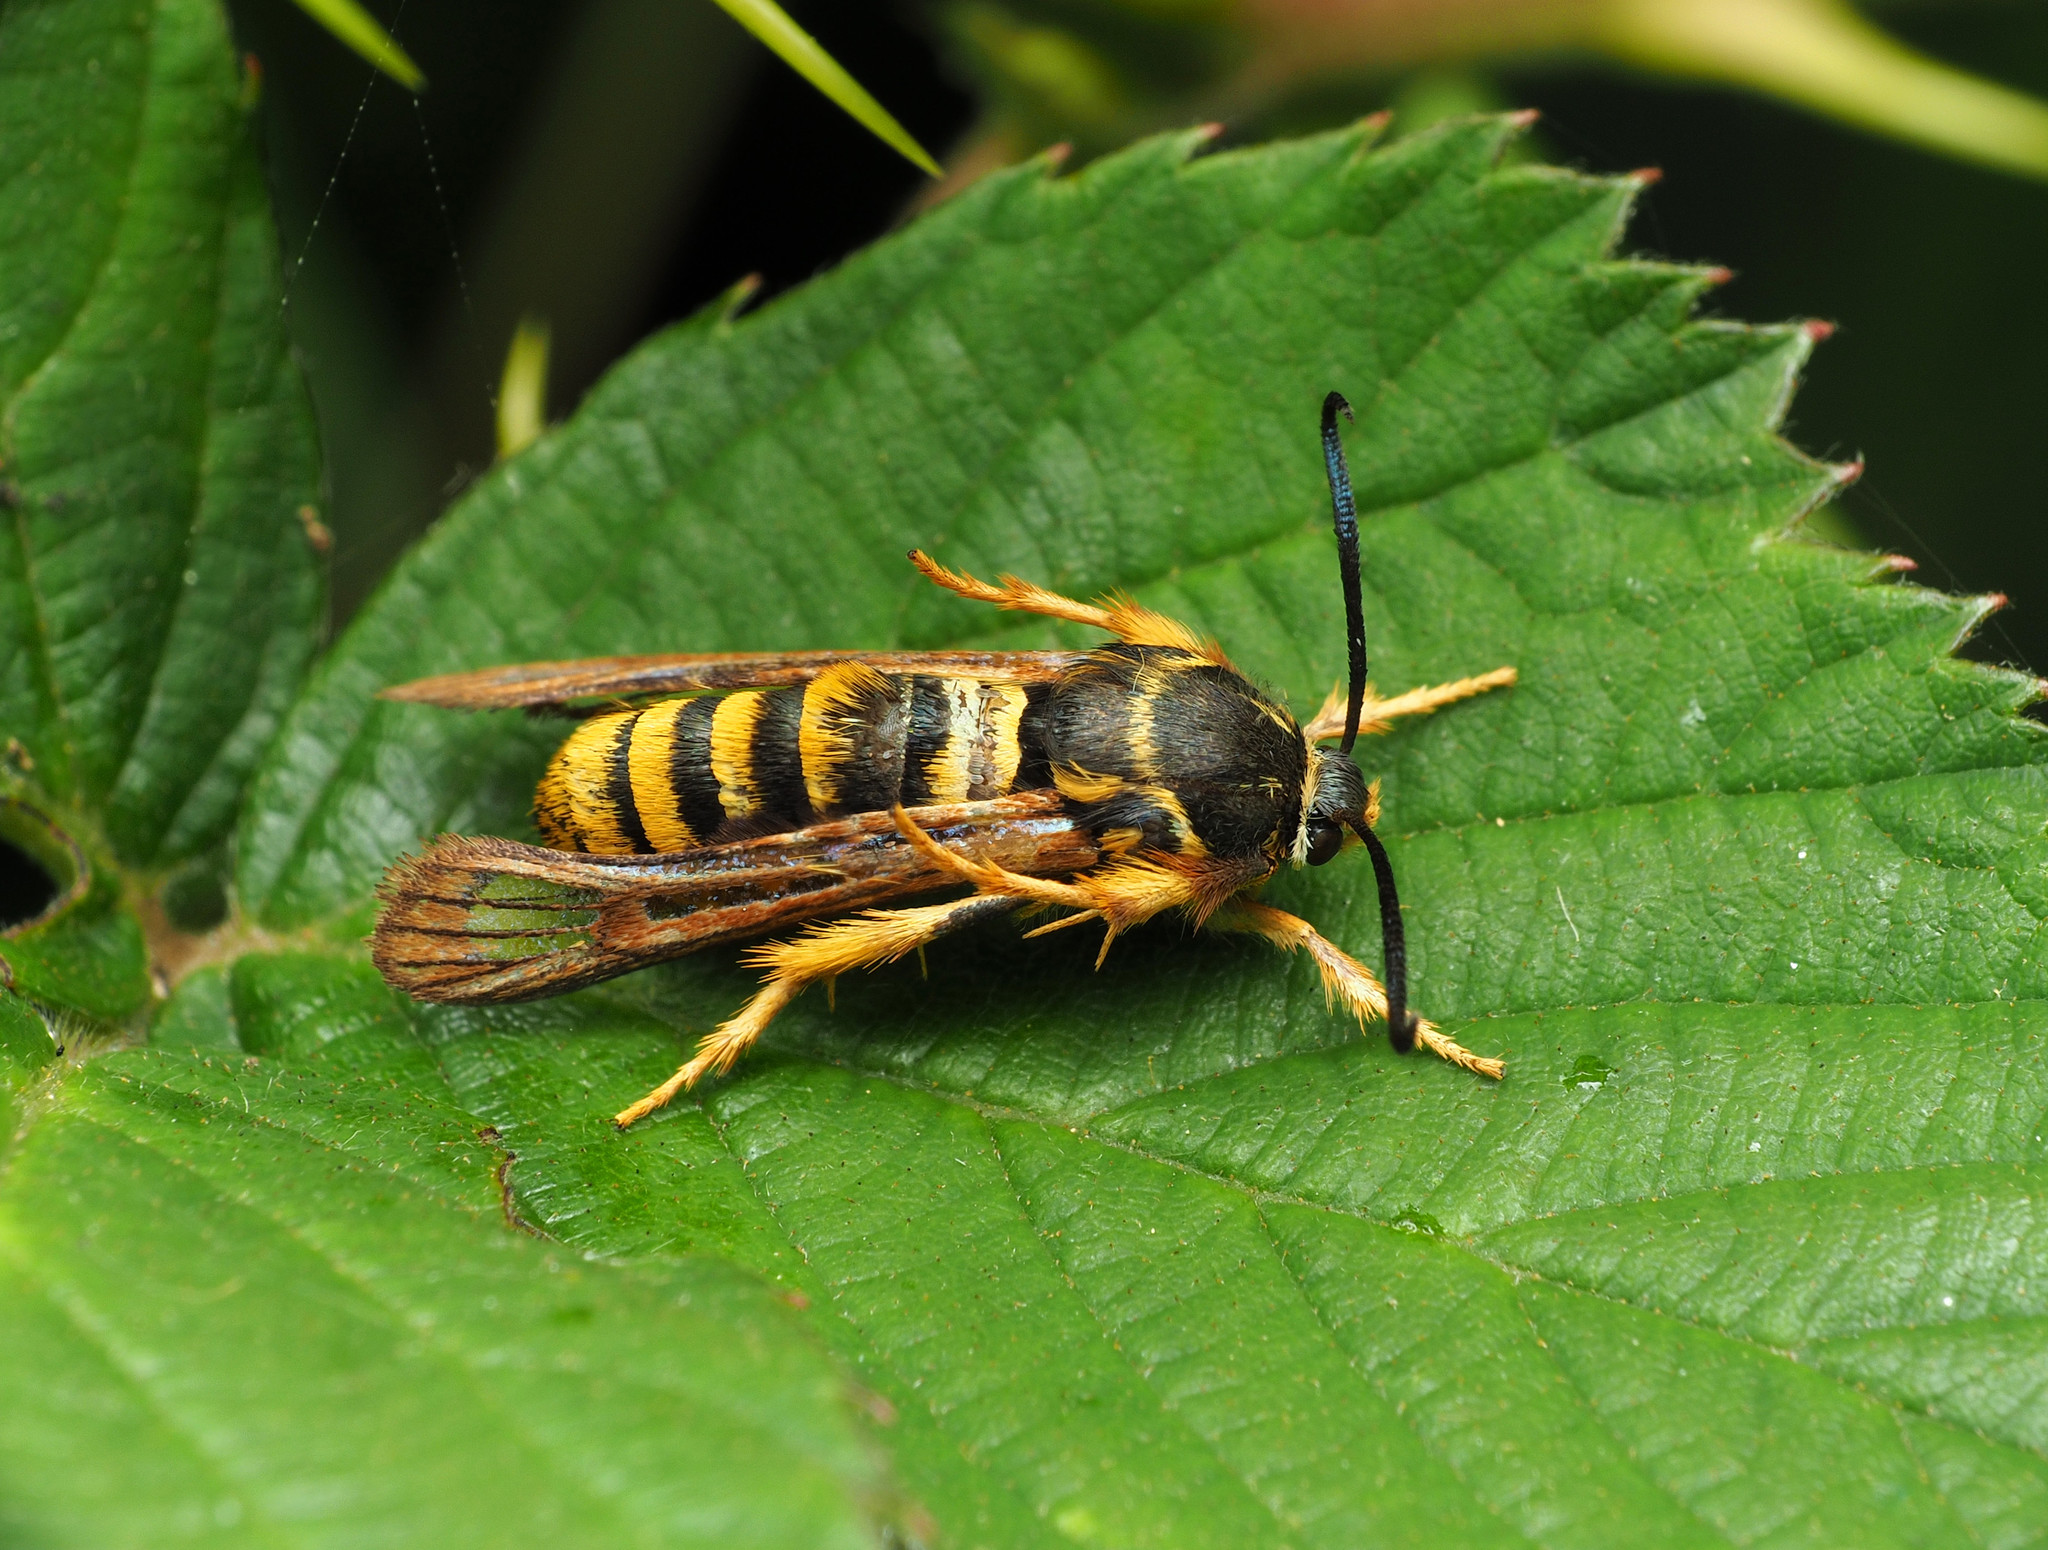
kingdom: Animalia
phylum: Arthropoda
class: Insecta
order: Lepidoptera
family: Sesiidae
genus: Pennisetia
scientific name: Pennisetia marginatum
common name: Raspberry crown borer
